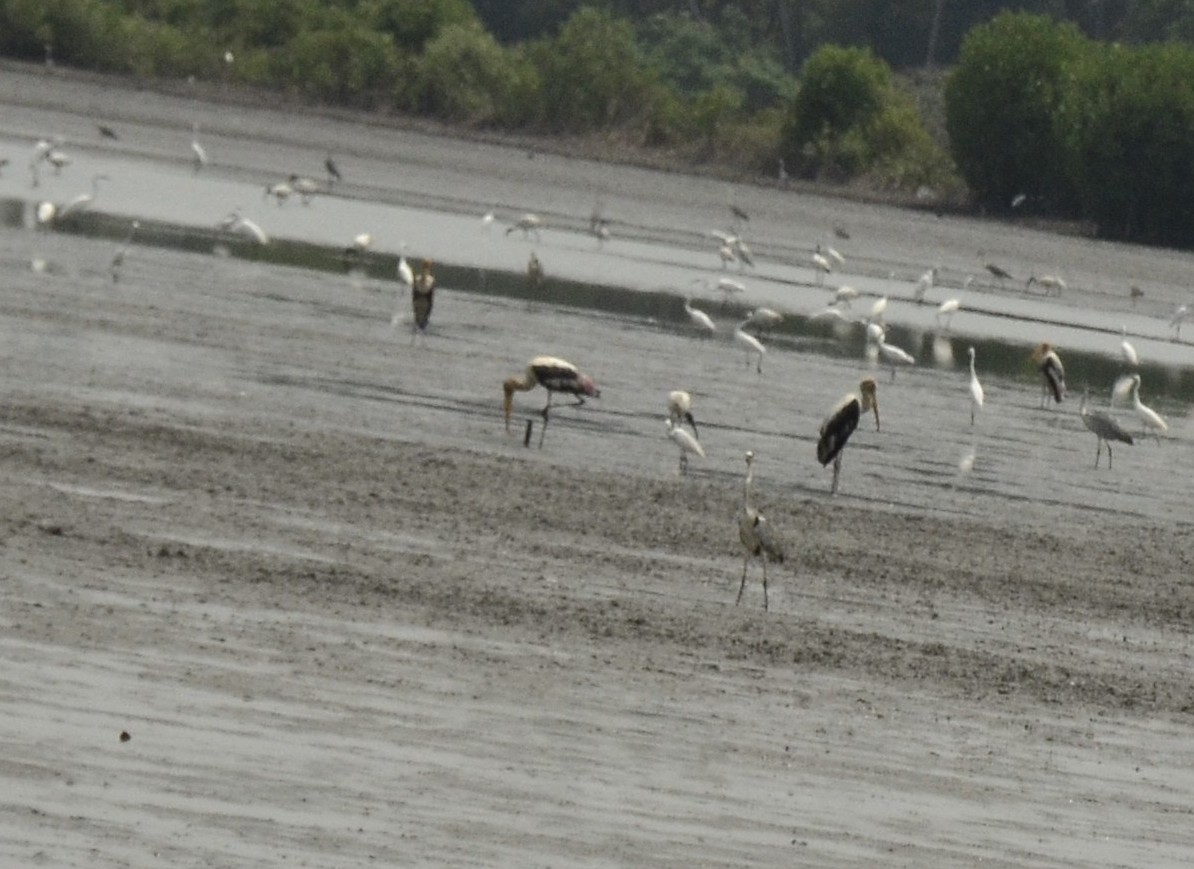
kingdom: Animalia
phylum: Chordata
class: Aves
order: Ciconiiformes
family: Ciconiidae
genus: Mycteria
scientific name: Mycteria leucocephala
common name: Painted stork
